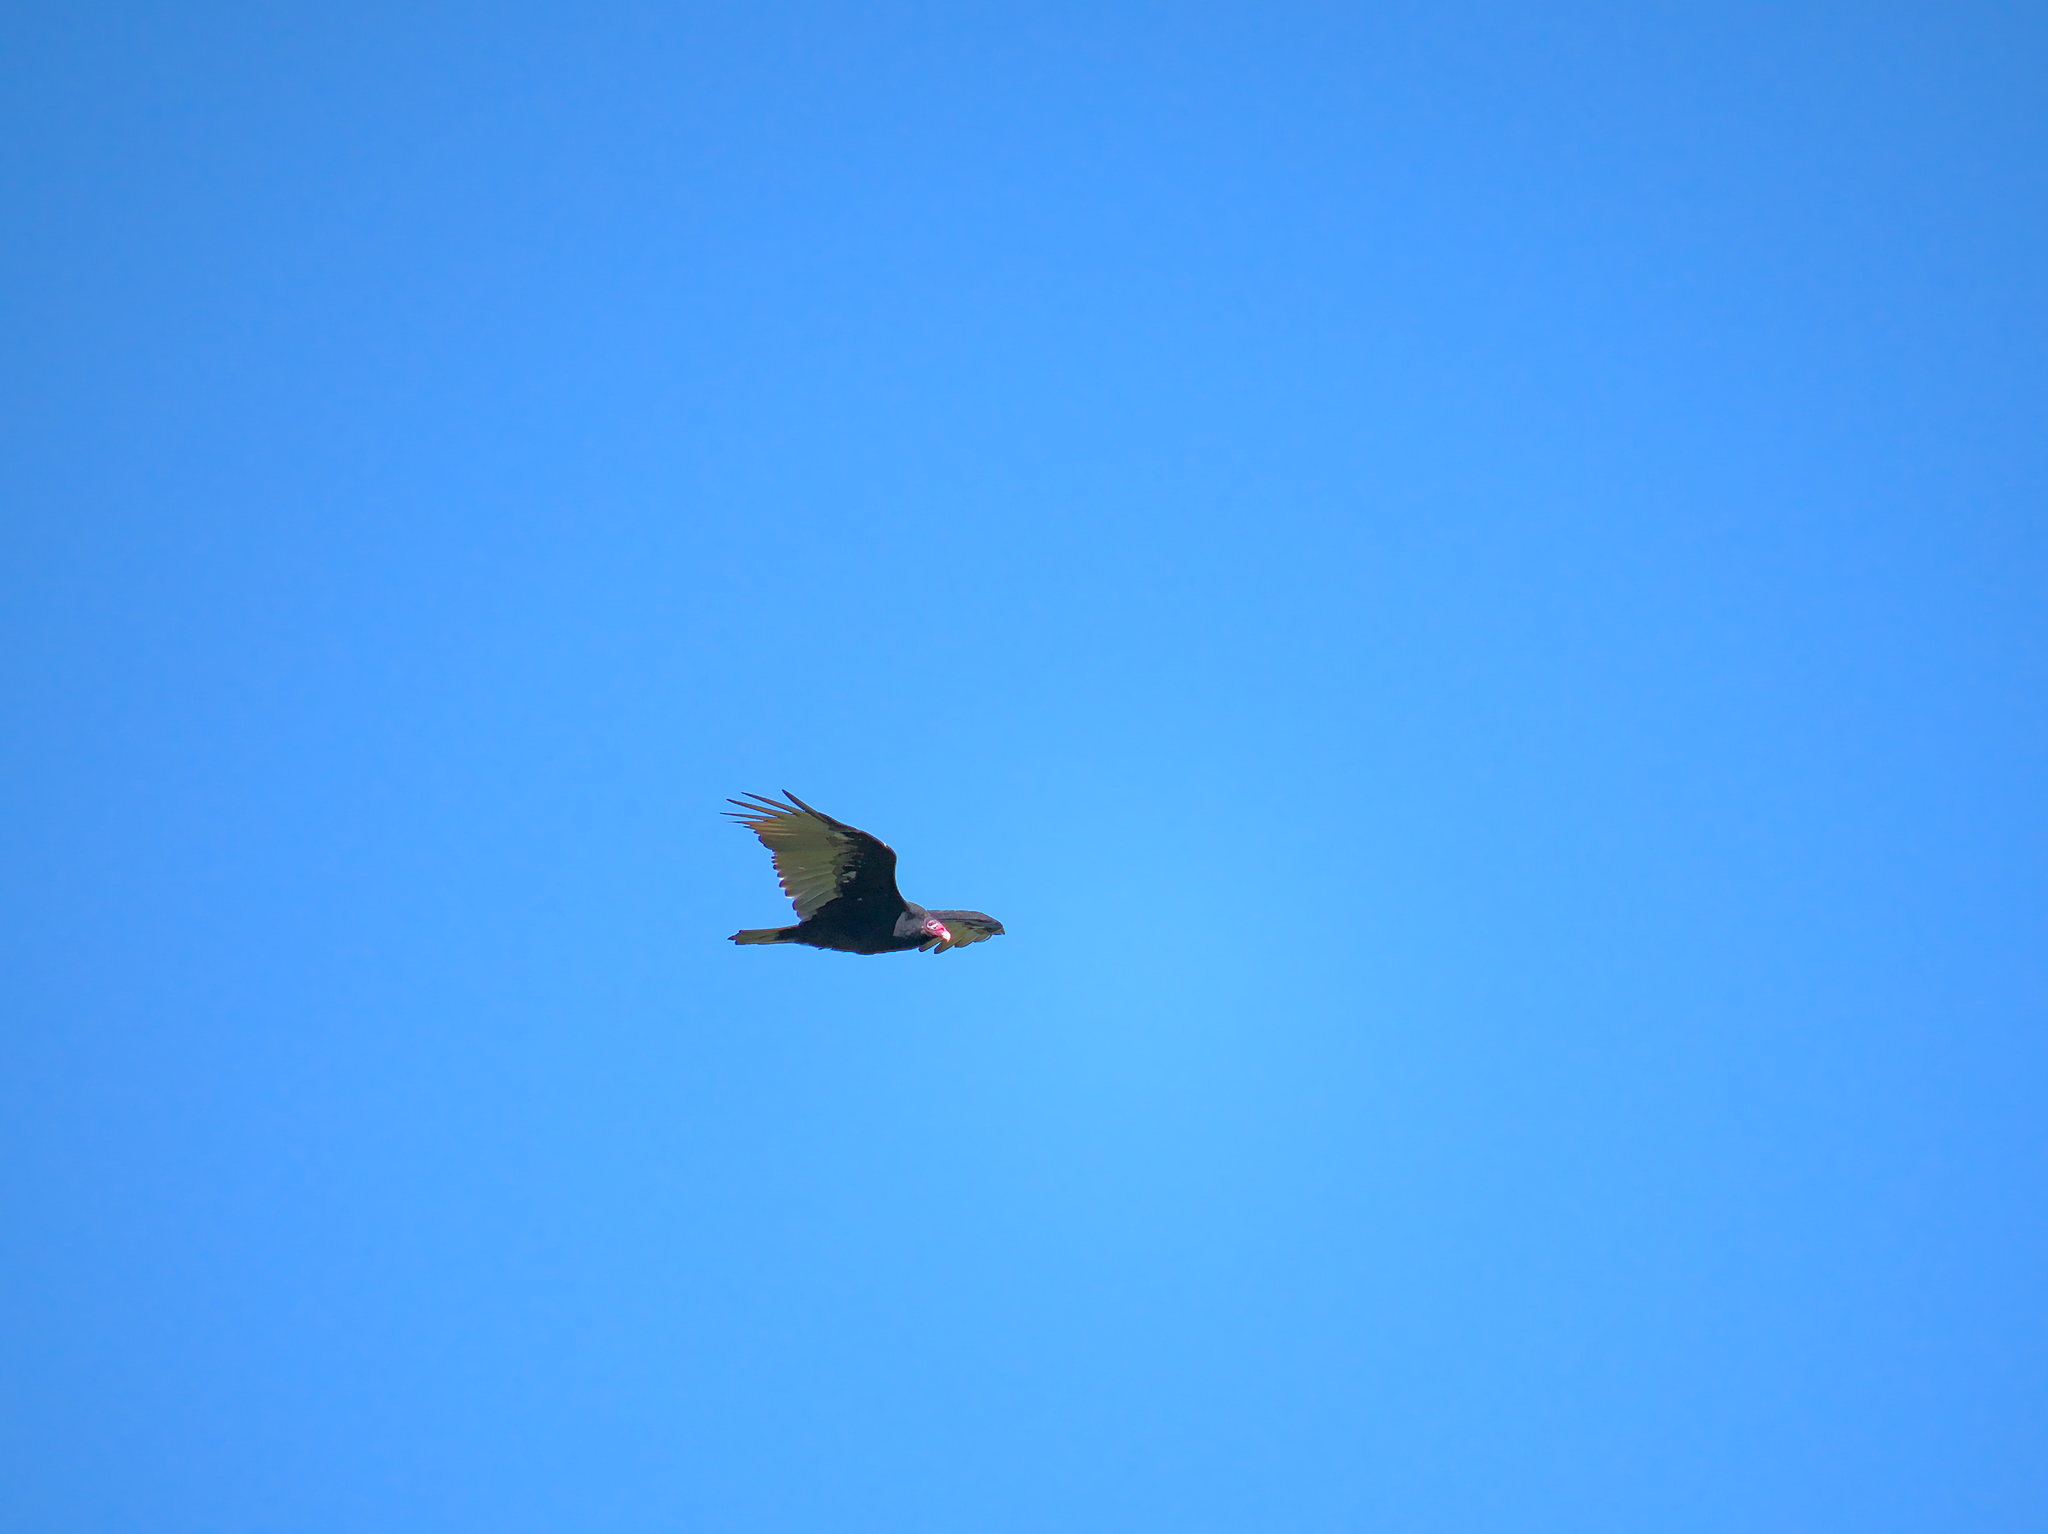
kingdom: Animalia
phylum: Chordata
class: Aves
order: Accipitriformes
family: Cathartidae
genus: Cathartes
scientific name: Cathartes aura
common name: Turkey vulture
